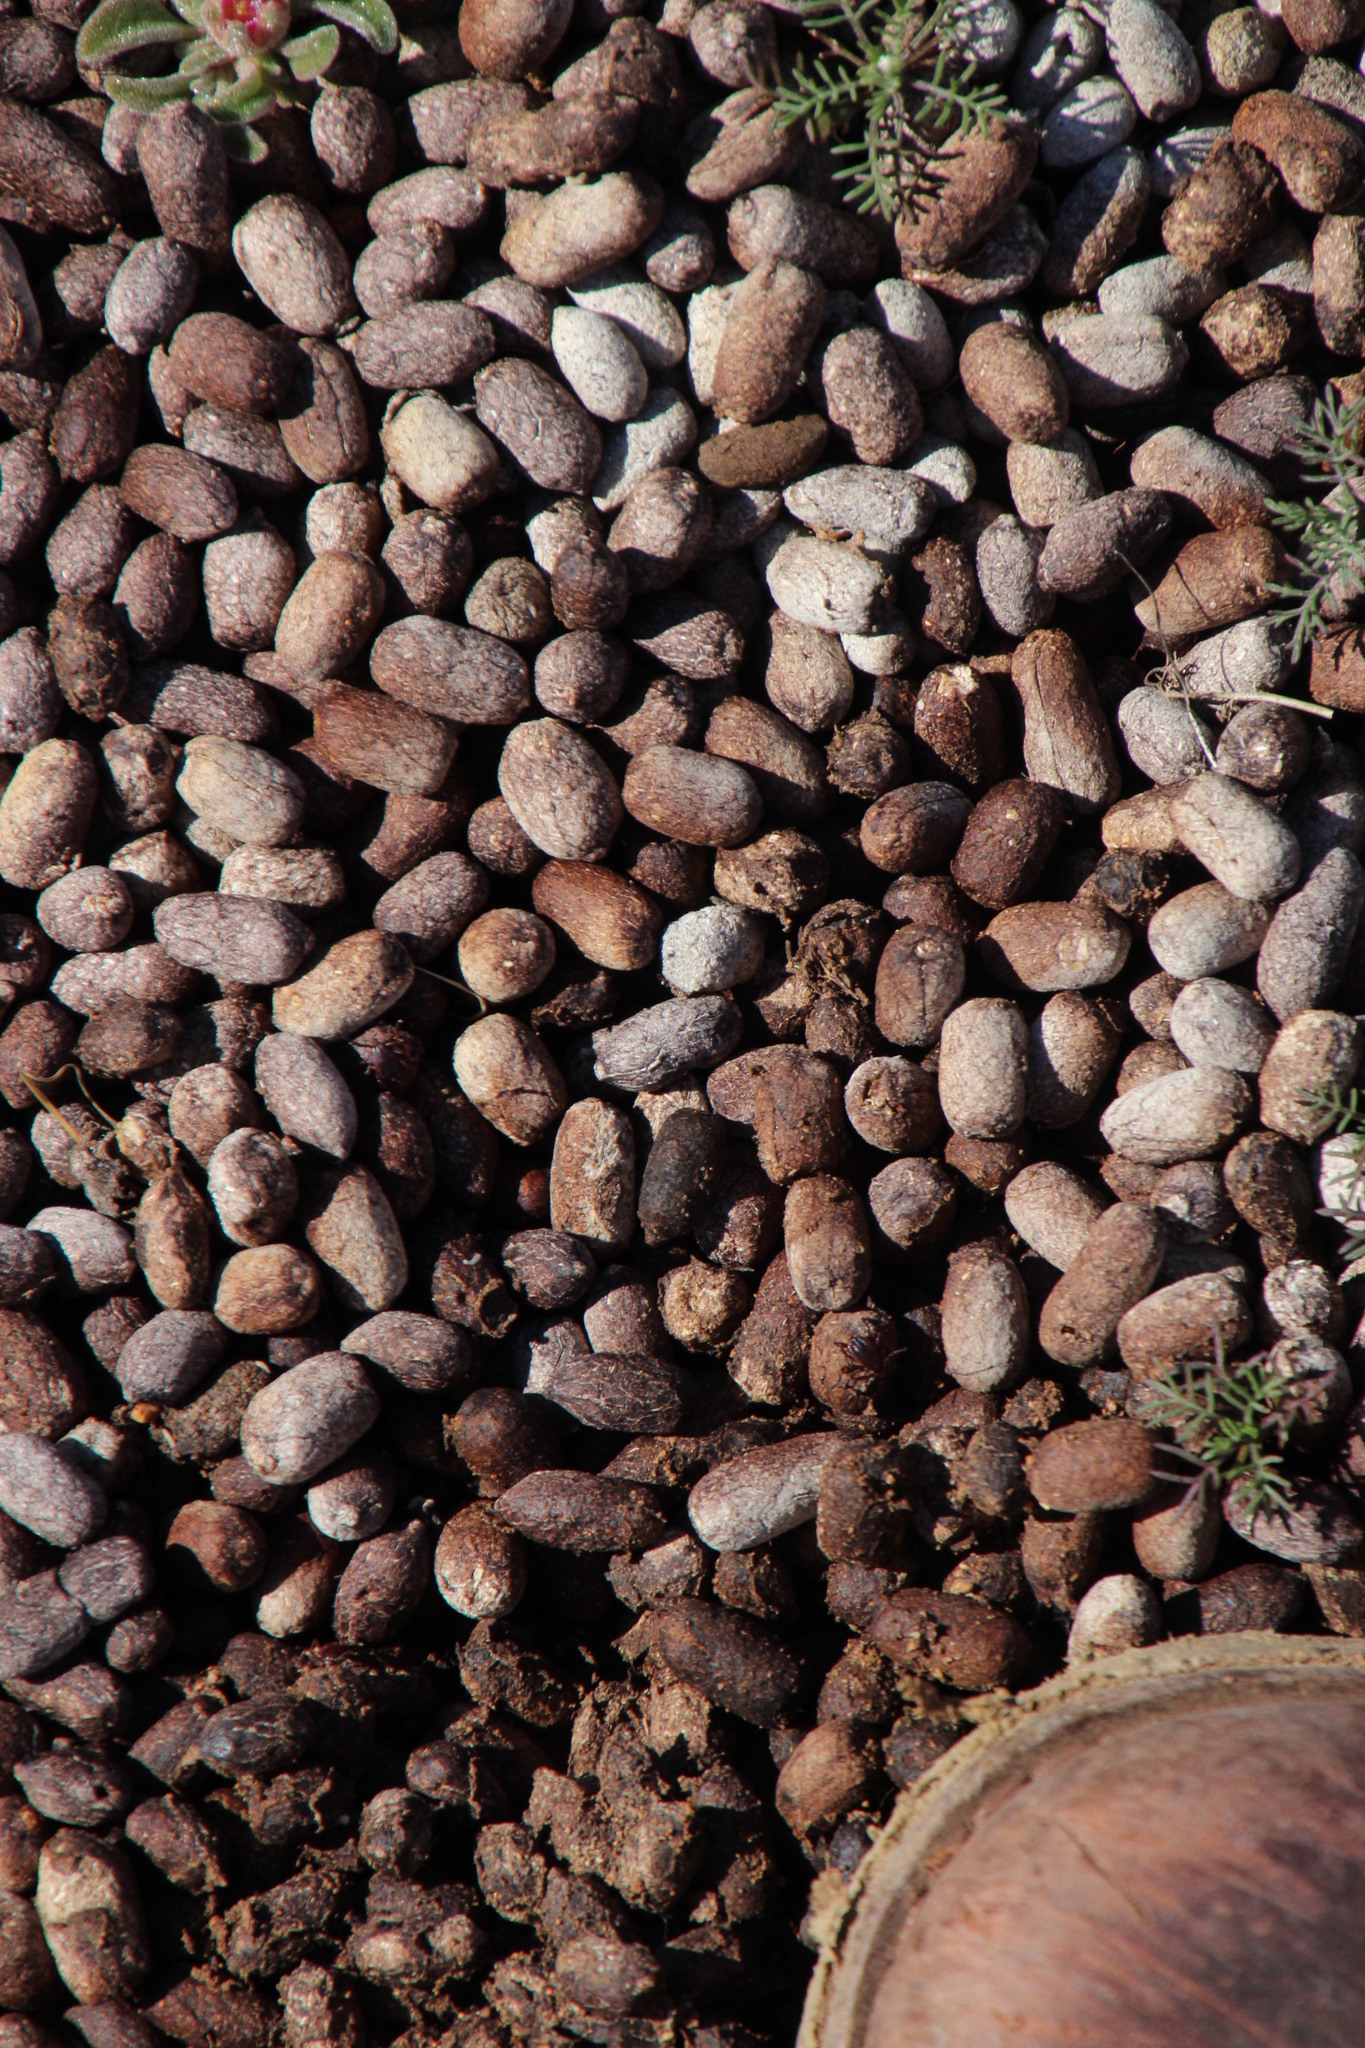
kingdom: Animalia
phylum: Chordata
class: Mammalia
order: Artiodactyla
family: Bovidae
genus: Oreotragus
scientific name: Oreotragus oreotragus
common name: Klipspringer
